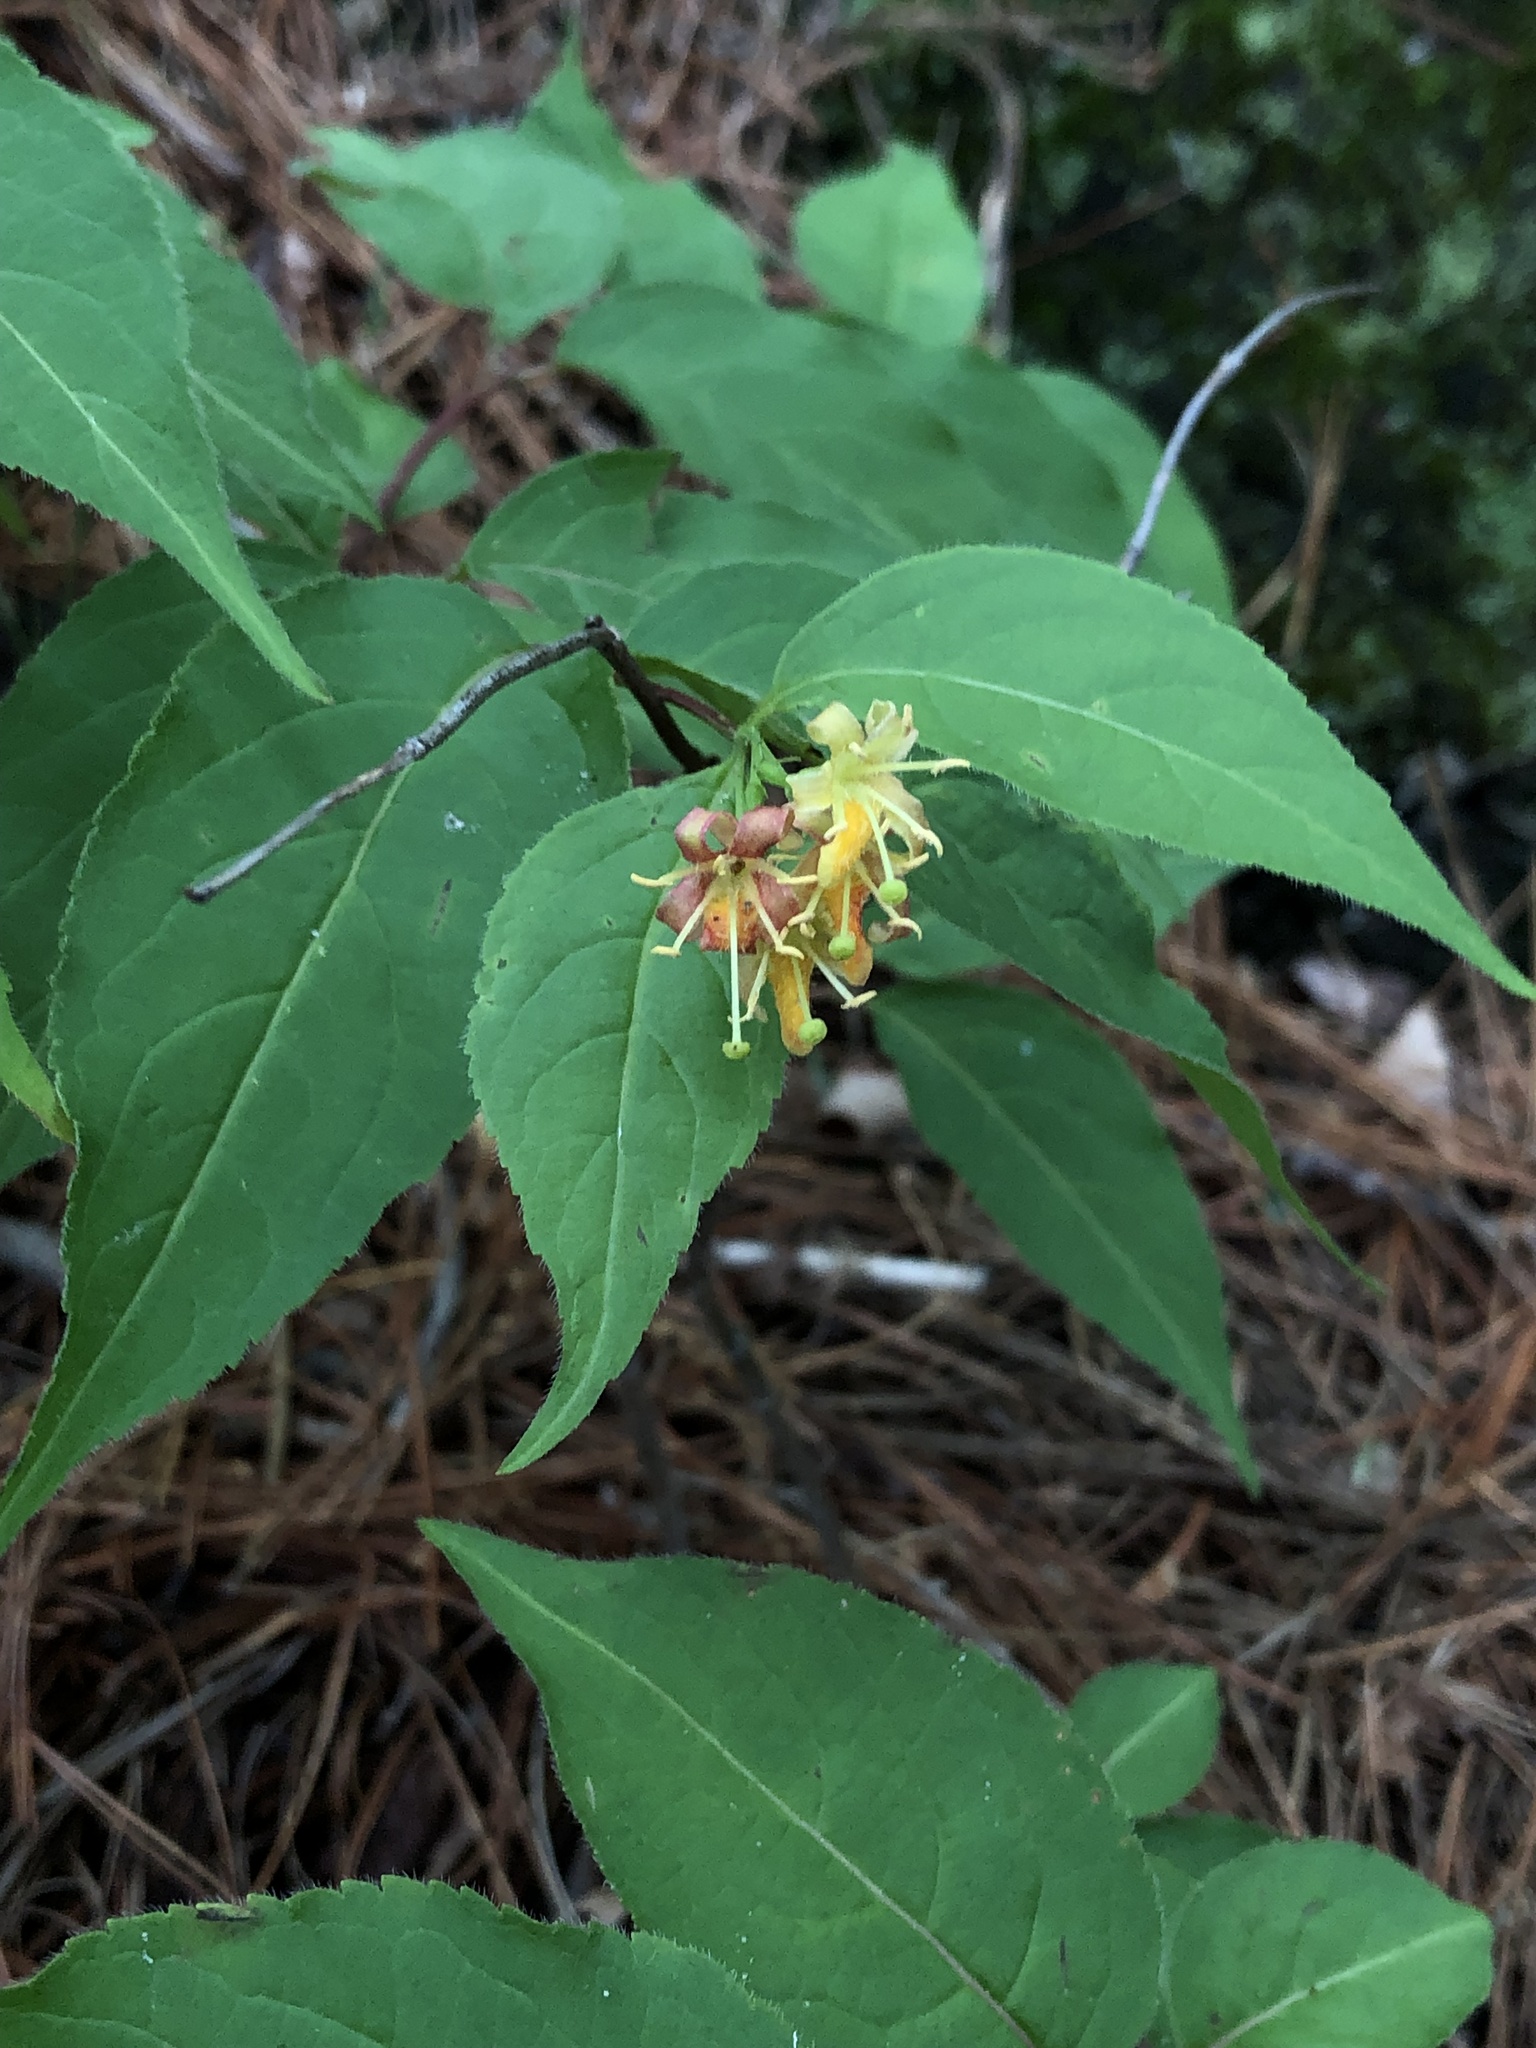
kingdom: Plantae
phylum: Tracheophyta
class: Magnoliopsida
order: Dipsacales
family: Caprifoliaceae
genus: Diervilla
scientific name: Diervilla lonicera
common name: Bush-honeysuckle
